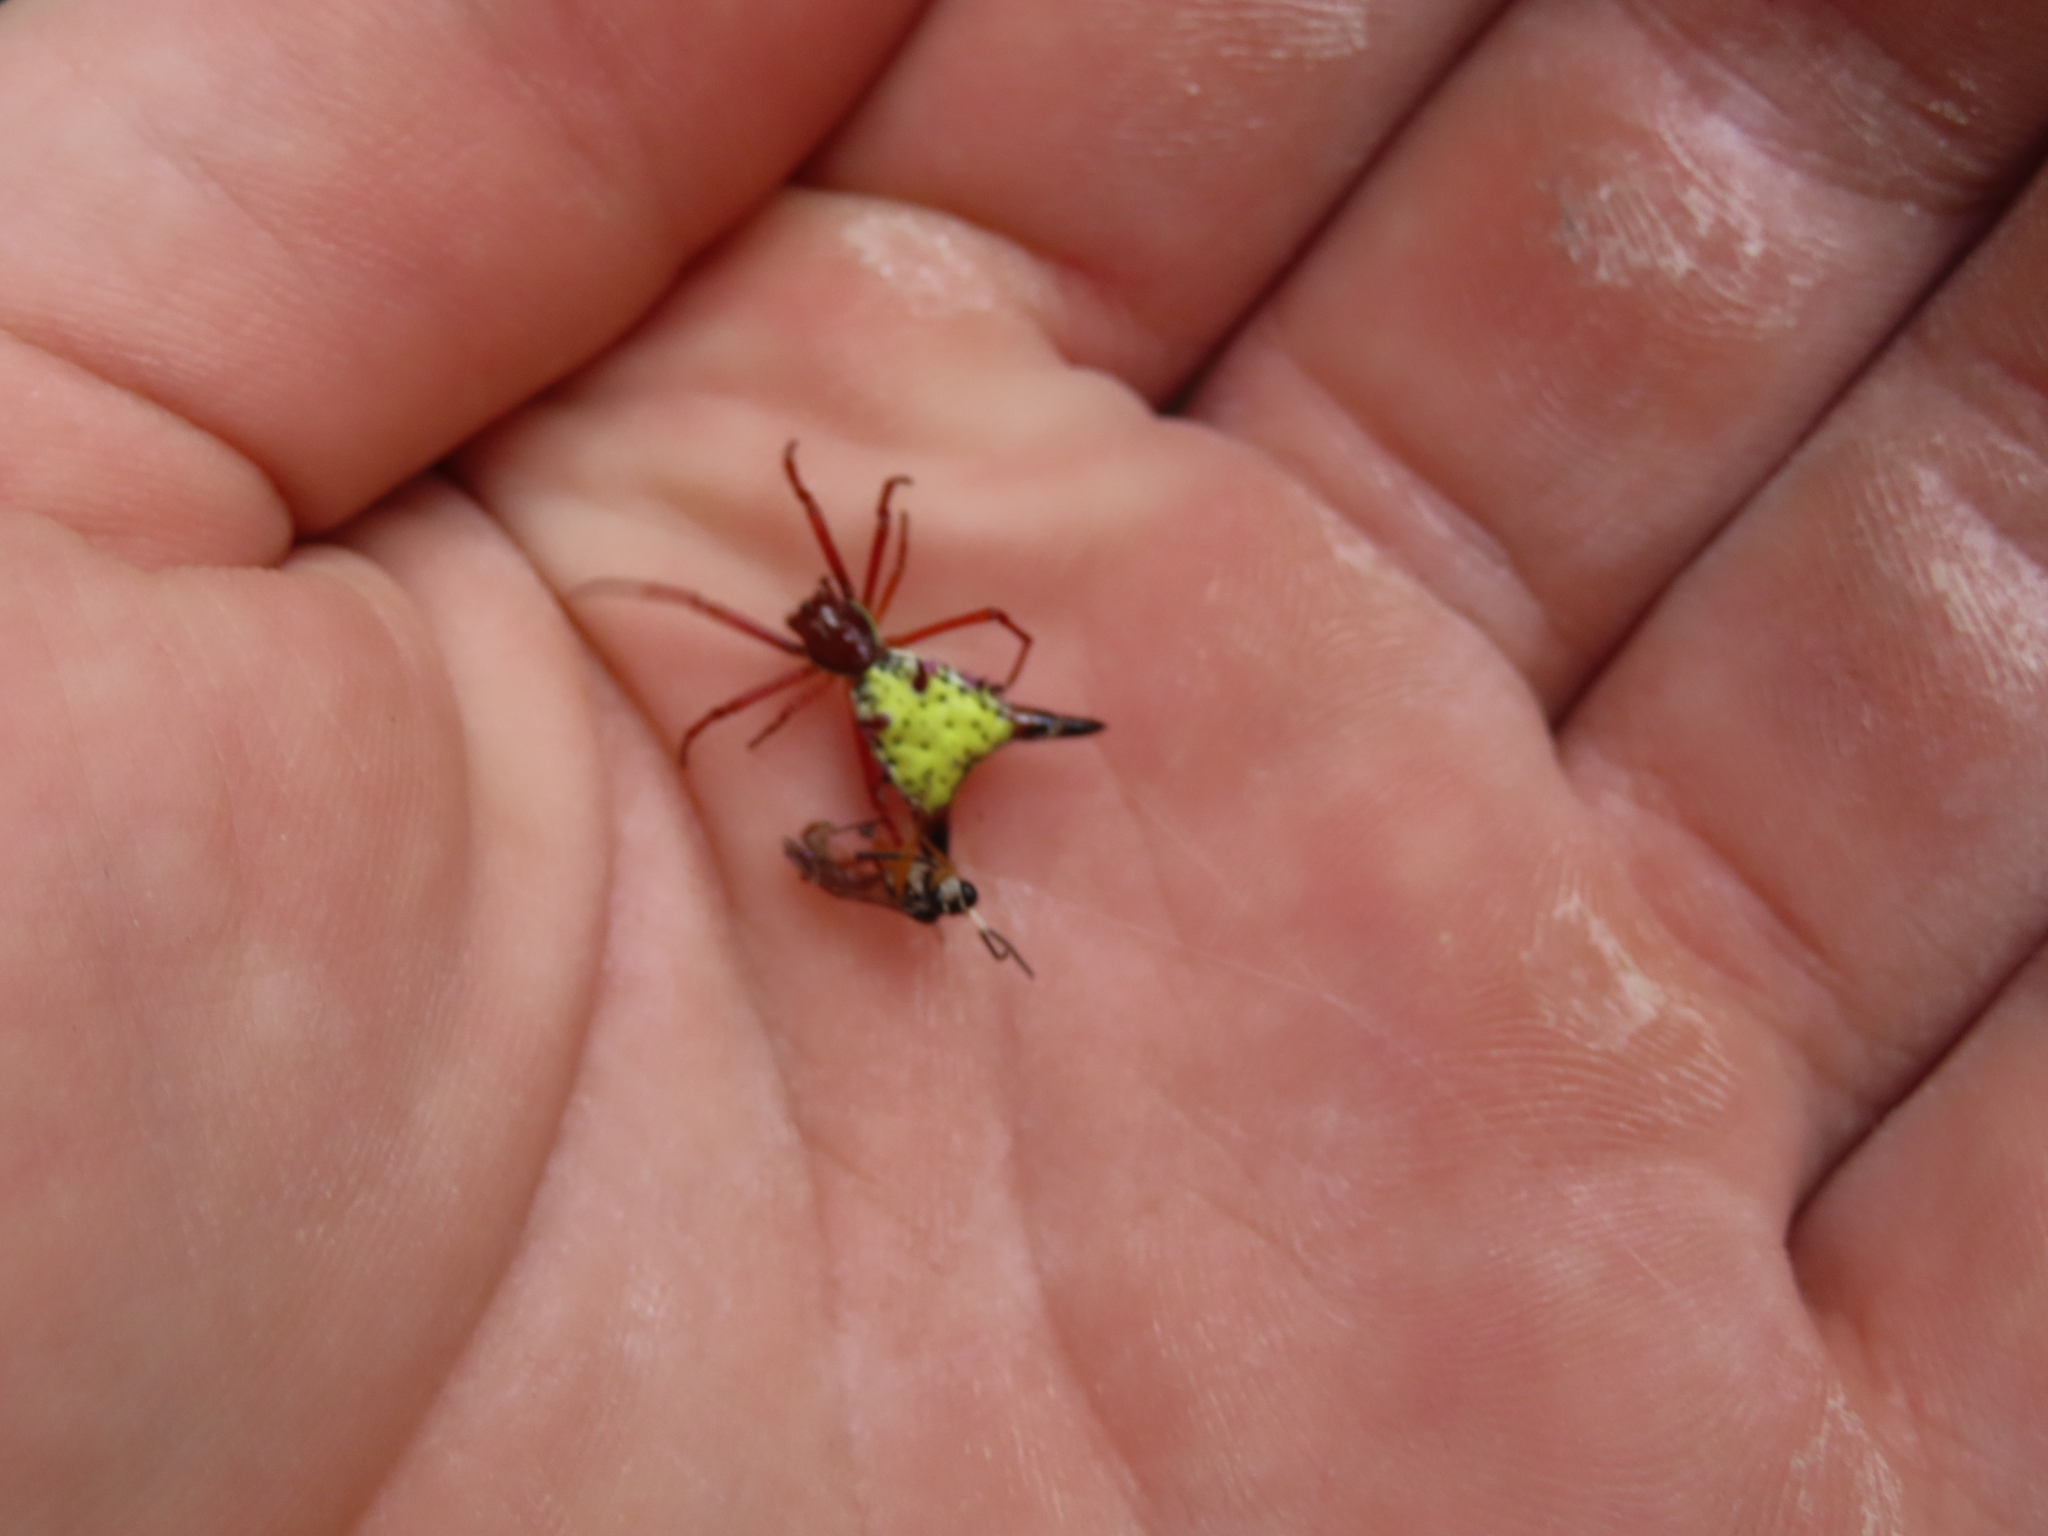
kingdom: Animalia
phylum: Arthropoda
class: Arachnida
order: Araneae
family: Araneidae
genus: Micrathena
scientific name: Micrathena sagittata
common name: Orb weavers
